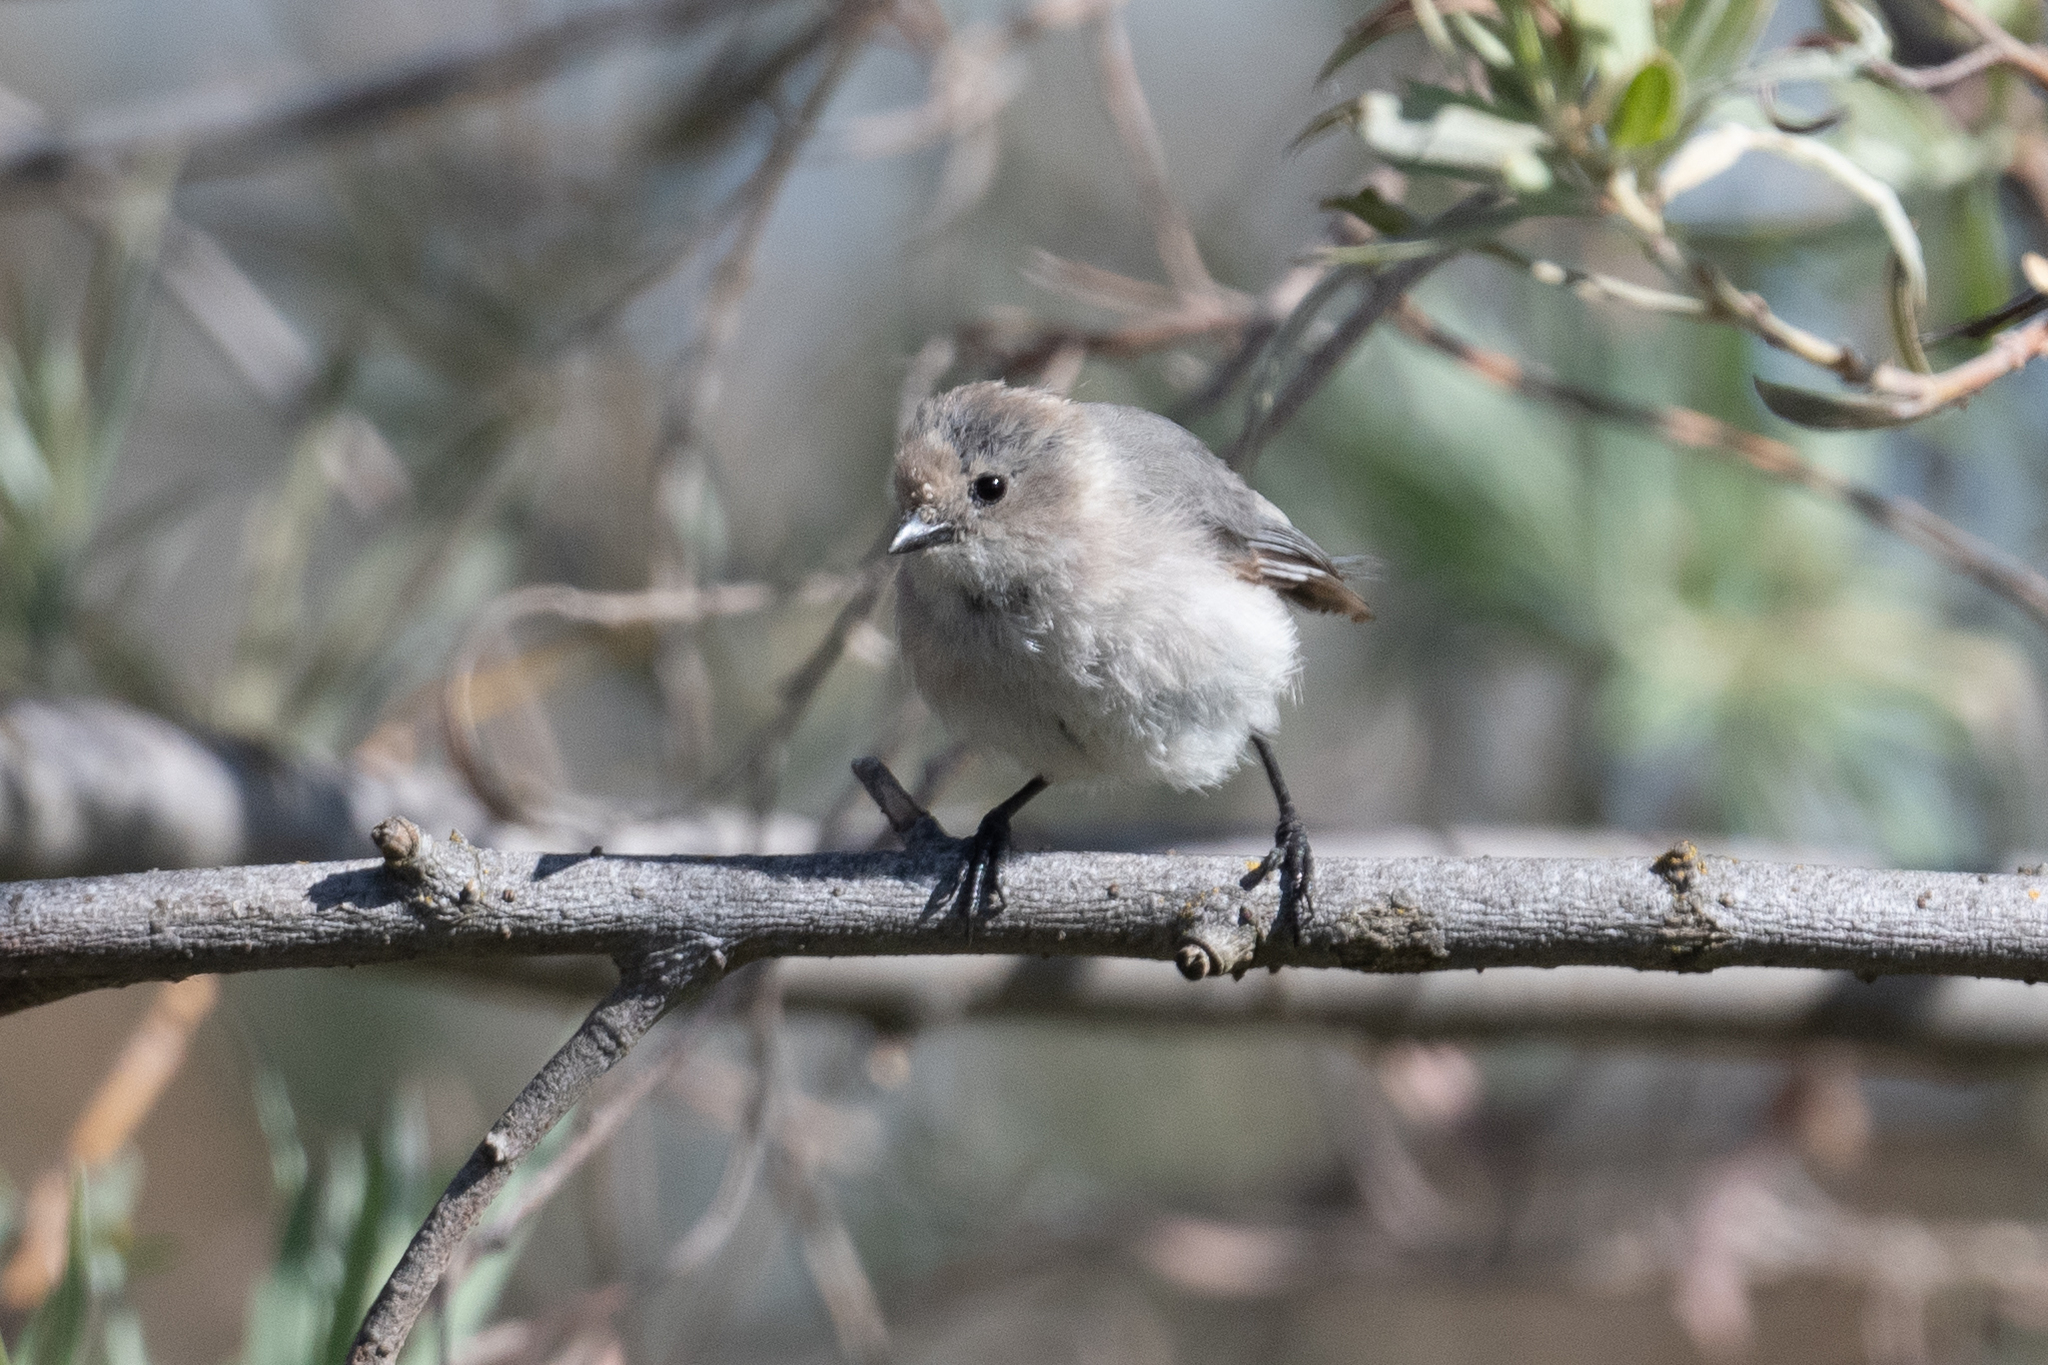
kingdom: Animalia
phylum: Chordata
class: Aves
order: Passeriformes
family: Aegithalidae
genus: Psaltriparus
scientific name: Psaltriparus minimus
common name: American bushtit
